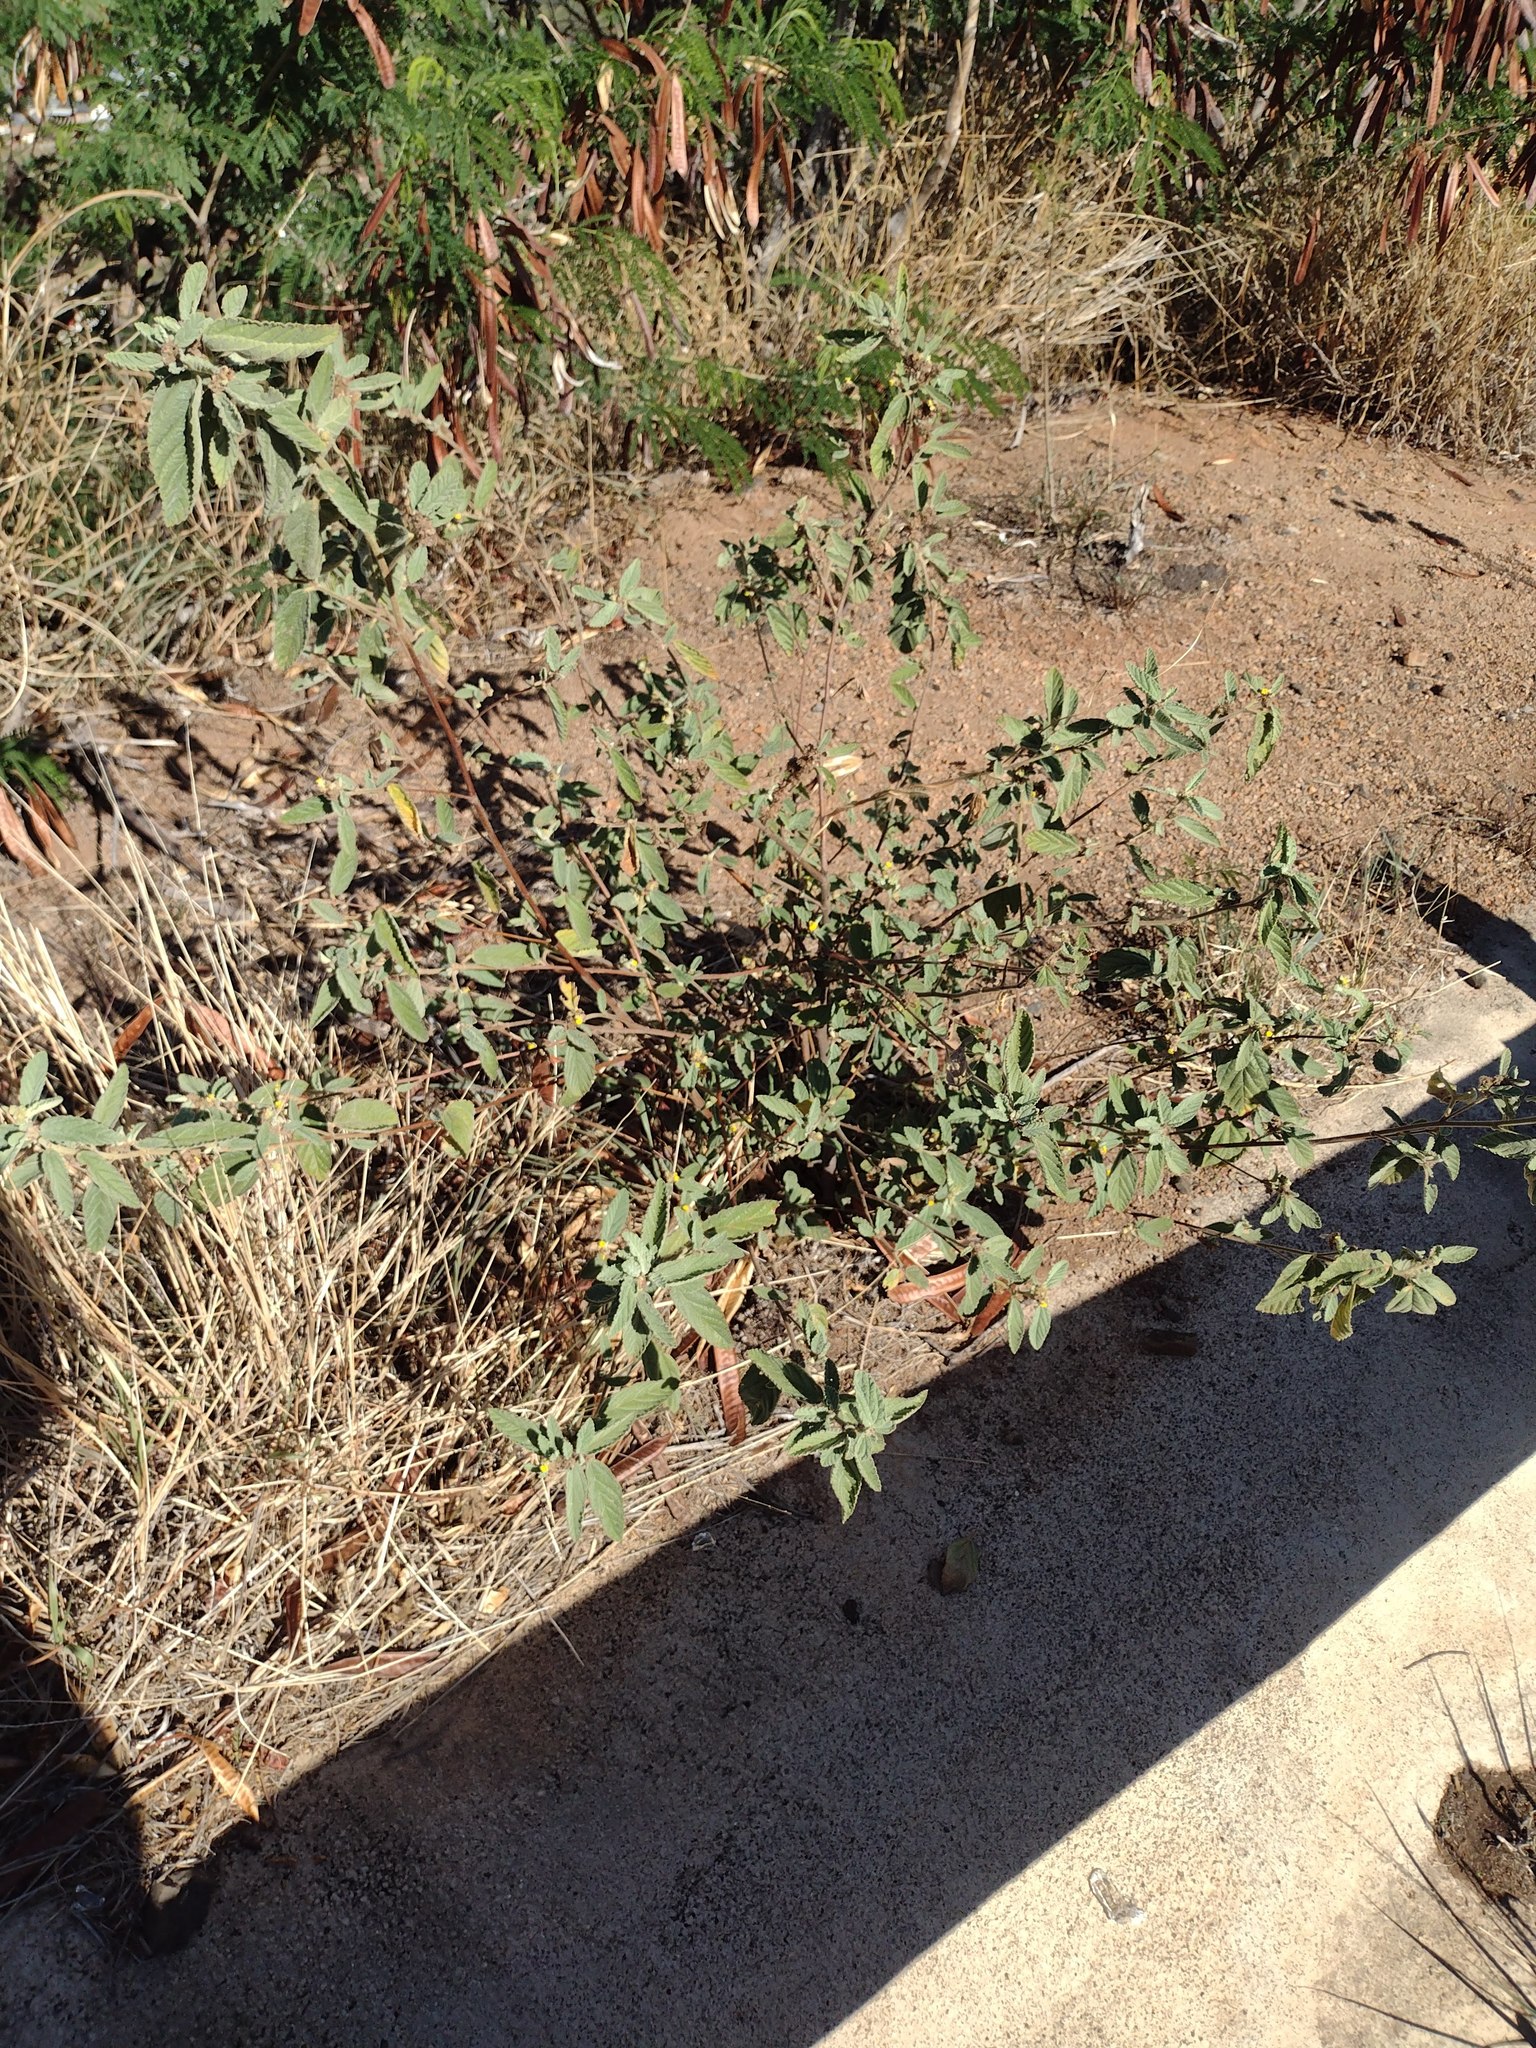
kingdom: Plantae
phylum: Tracheophyta
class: Magnoliopsida
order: Malvales
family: Malvaceae
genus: Waltheria
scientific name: Waltheria indica
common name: Leather-coat
